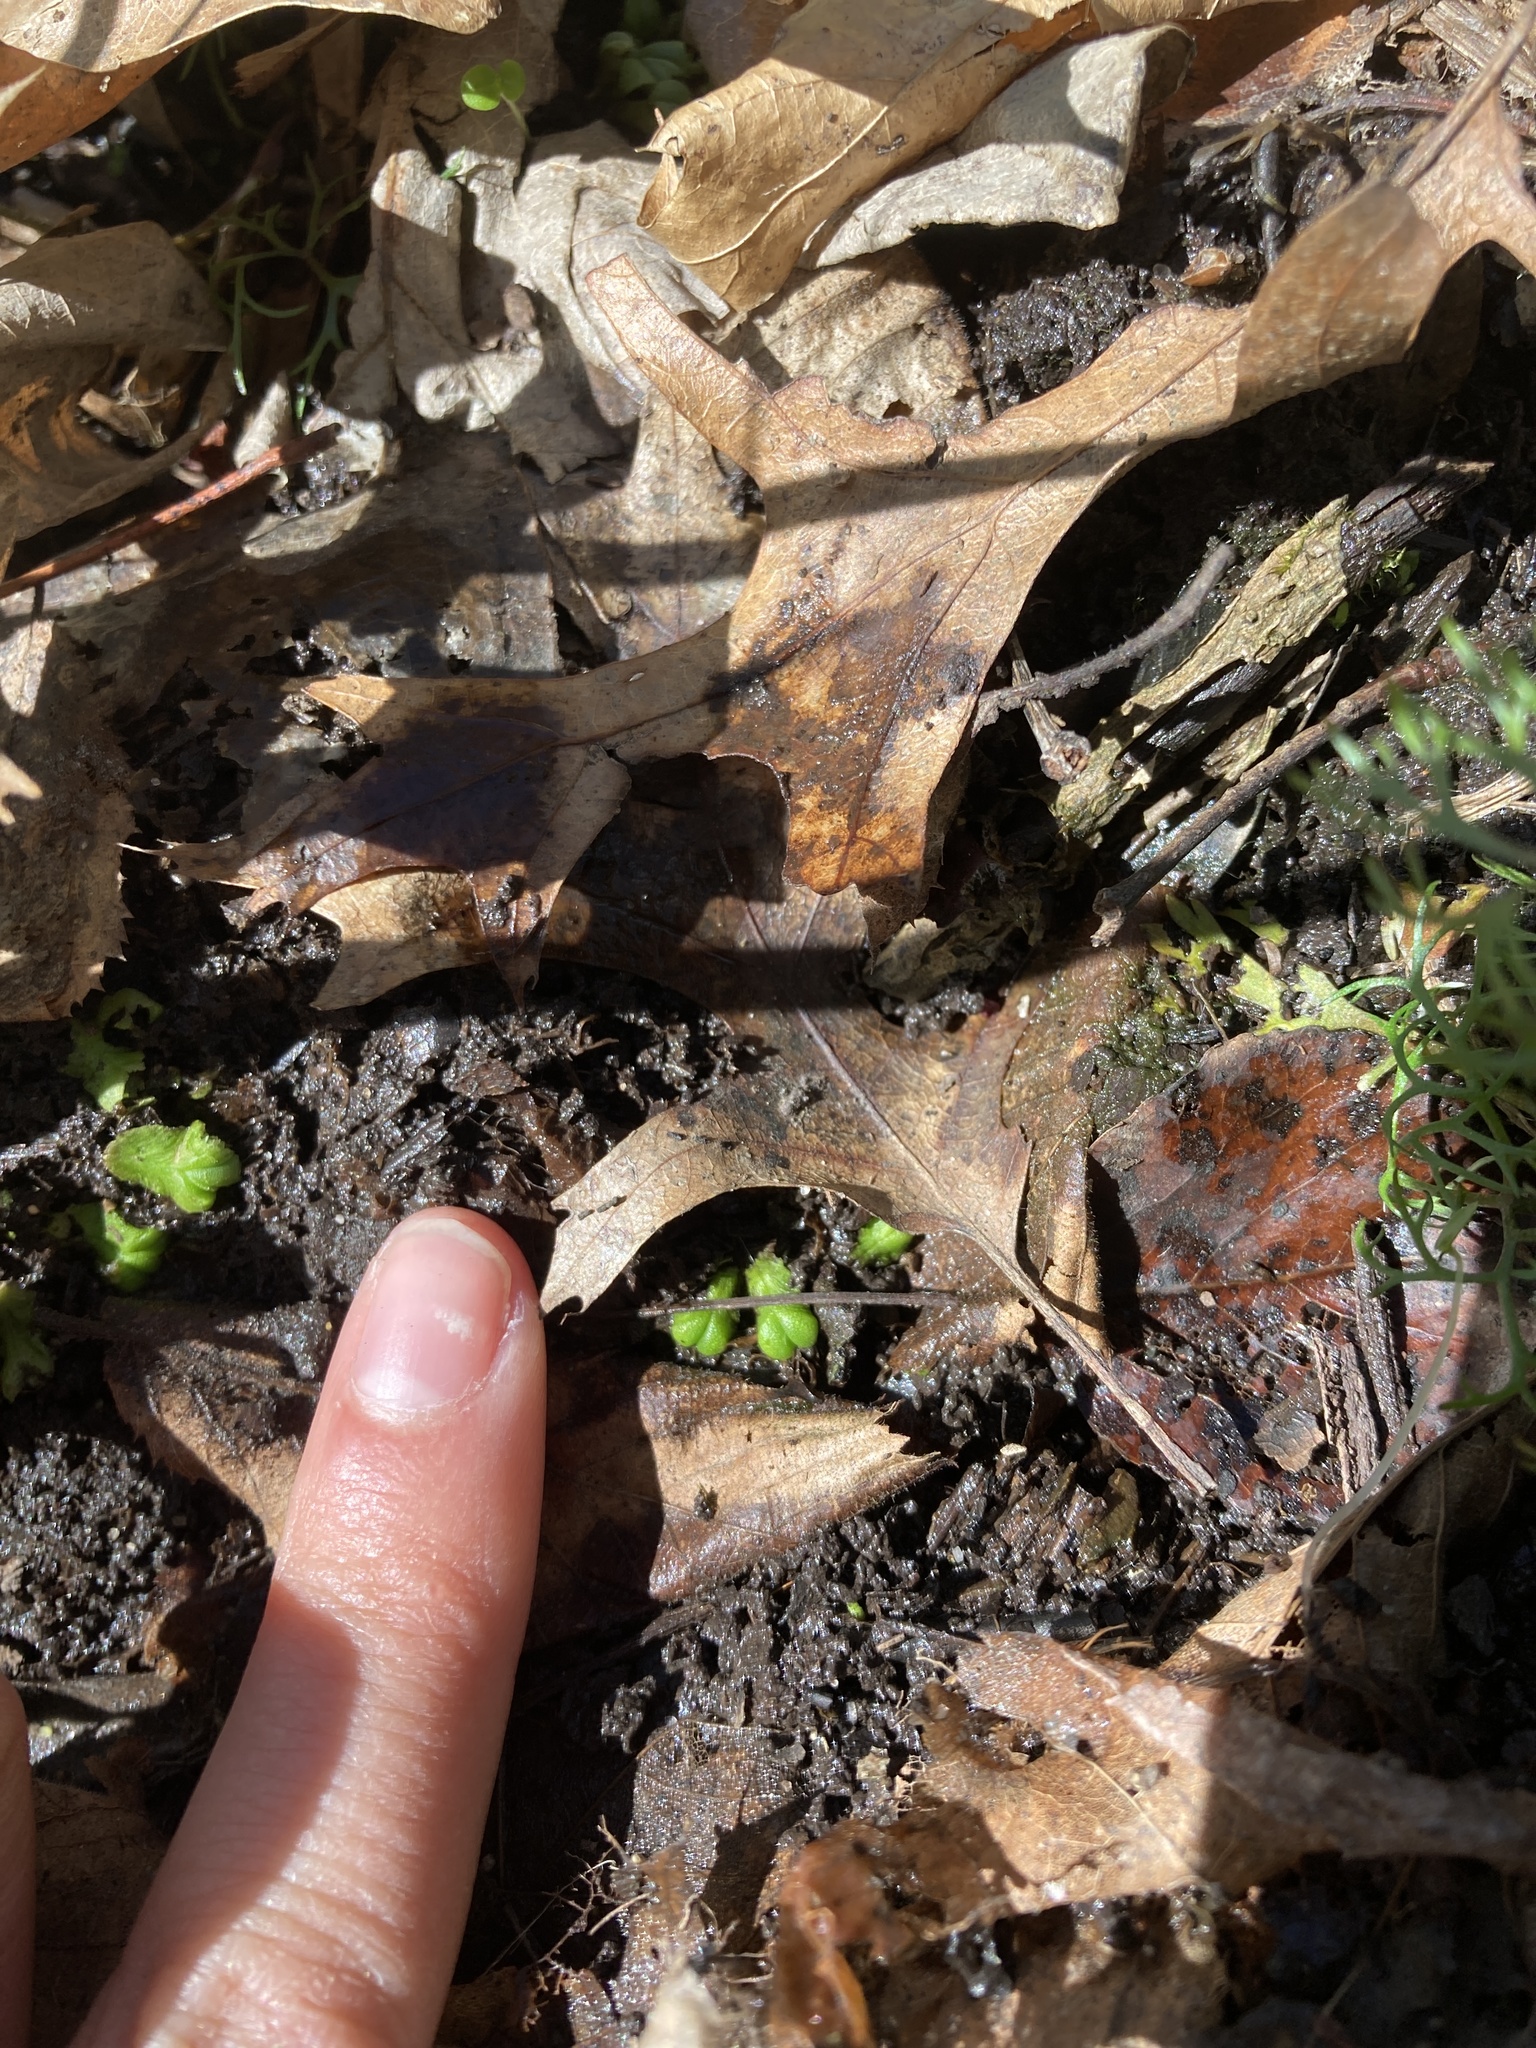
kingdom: Plantae
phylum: Marchantiophyta
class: Marchantiopsida
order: Marchantiales
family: Ricciaceae
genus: Ricciocarpos
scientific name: Ricciocarpos natans
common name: Purple-fringed liverwort
